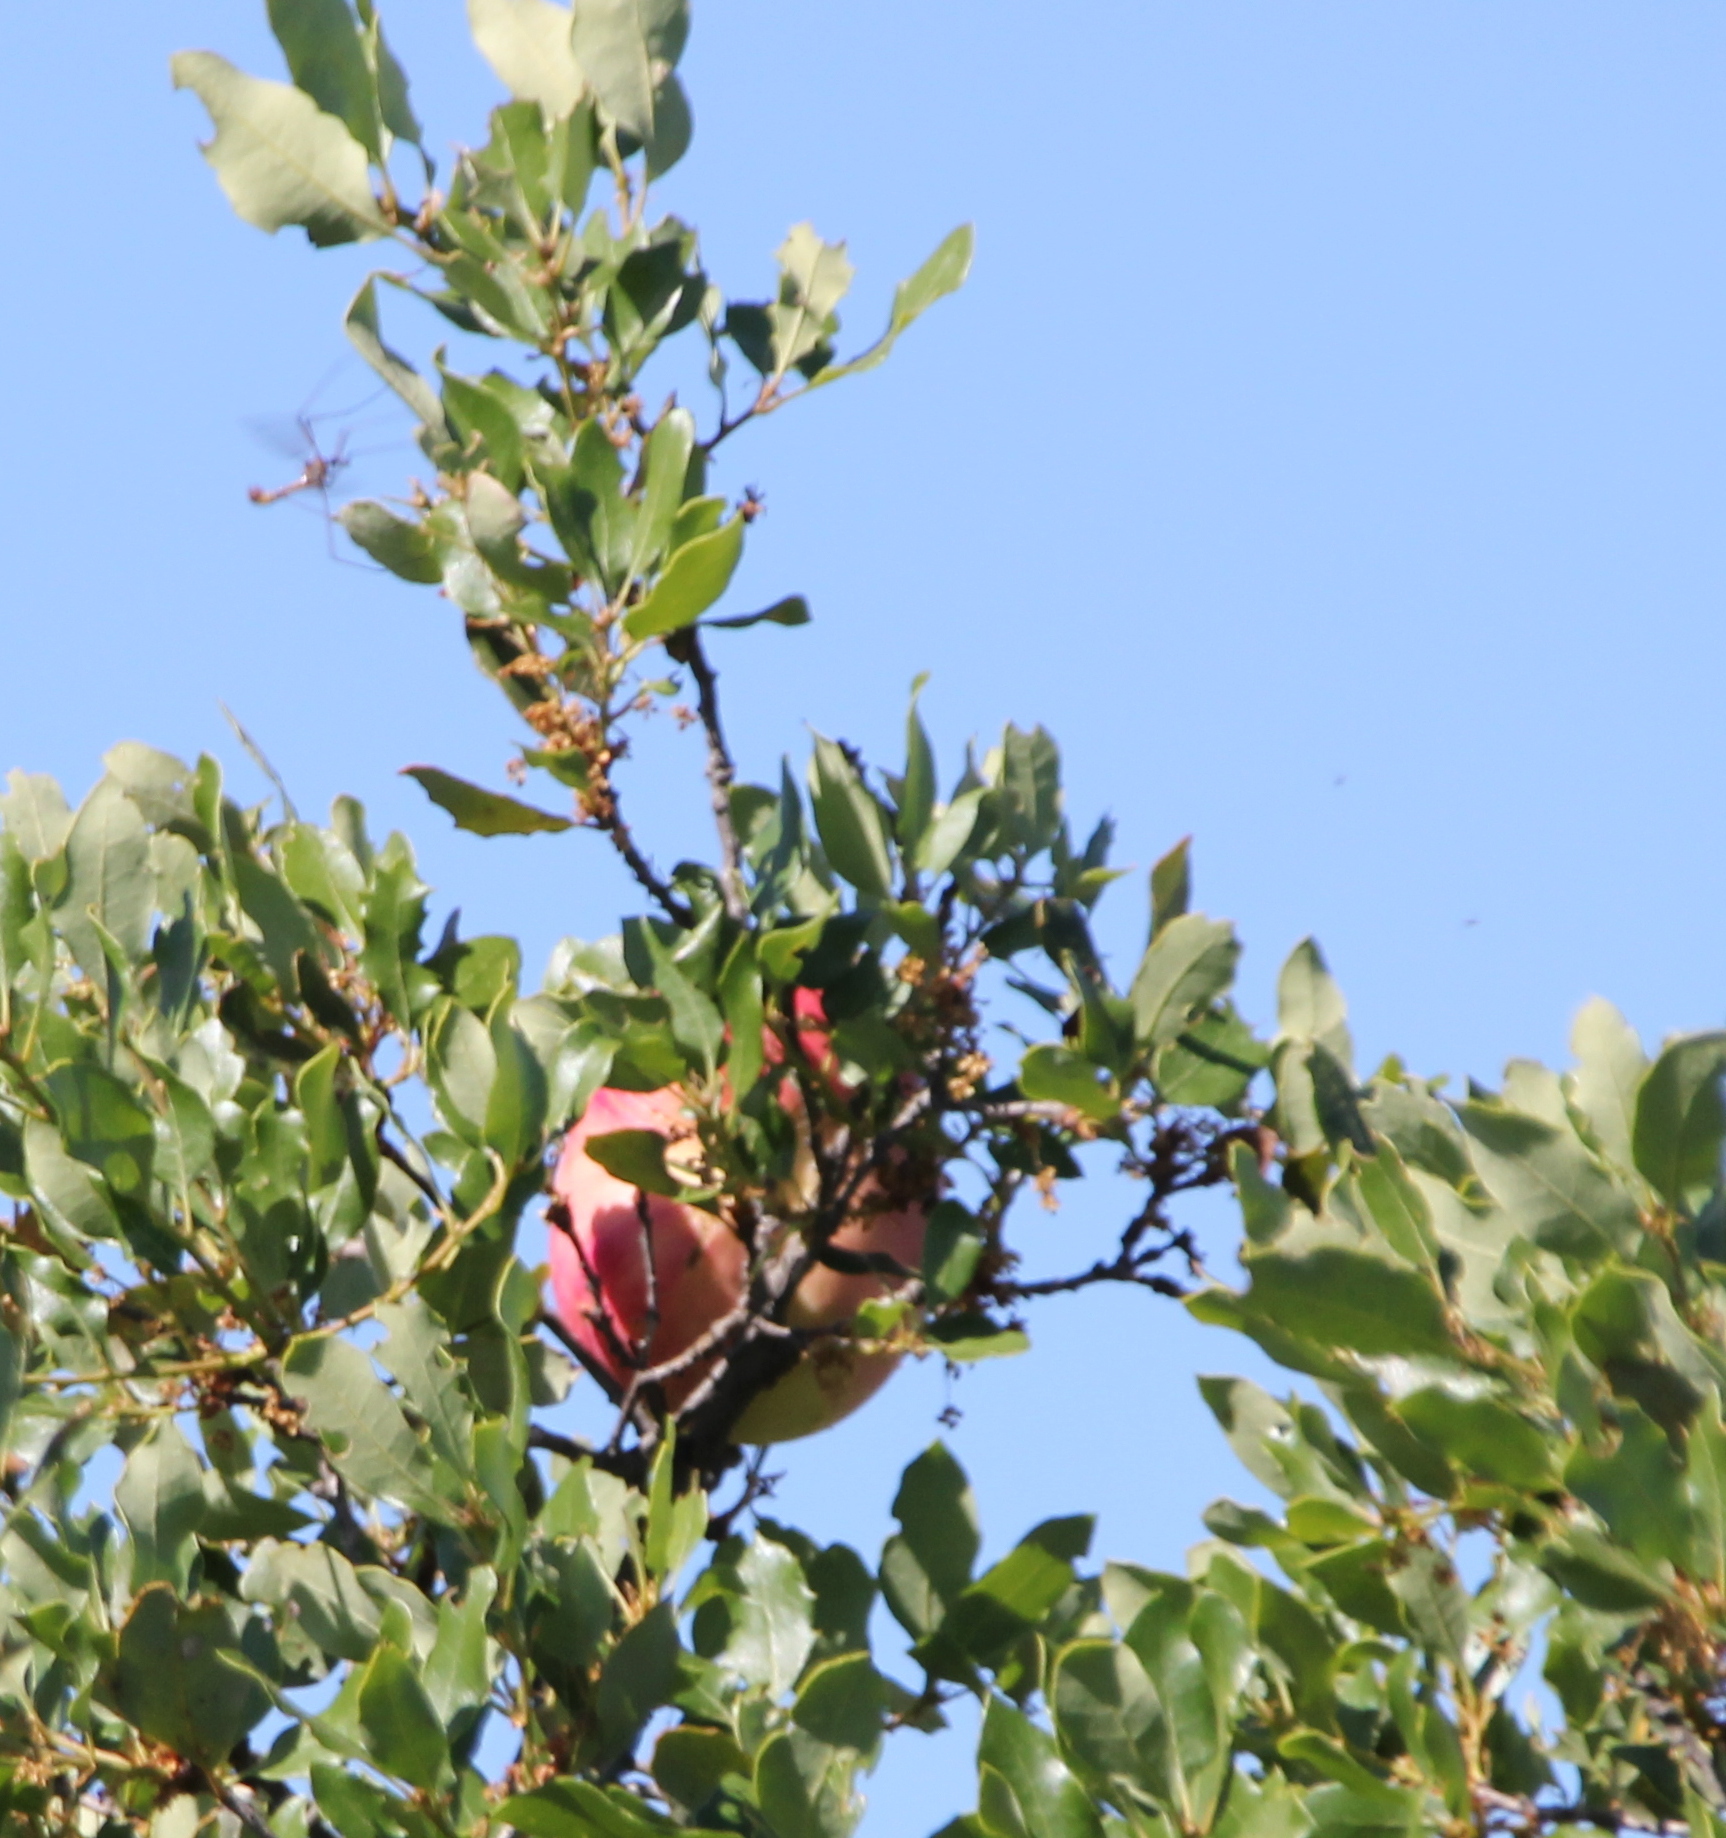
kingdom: Animalia
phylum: Arthropoda
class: Insecta
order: Hymenoptera
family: Cynipidae
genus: Andricus
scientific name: Andricus quercuscalifornicus
